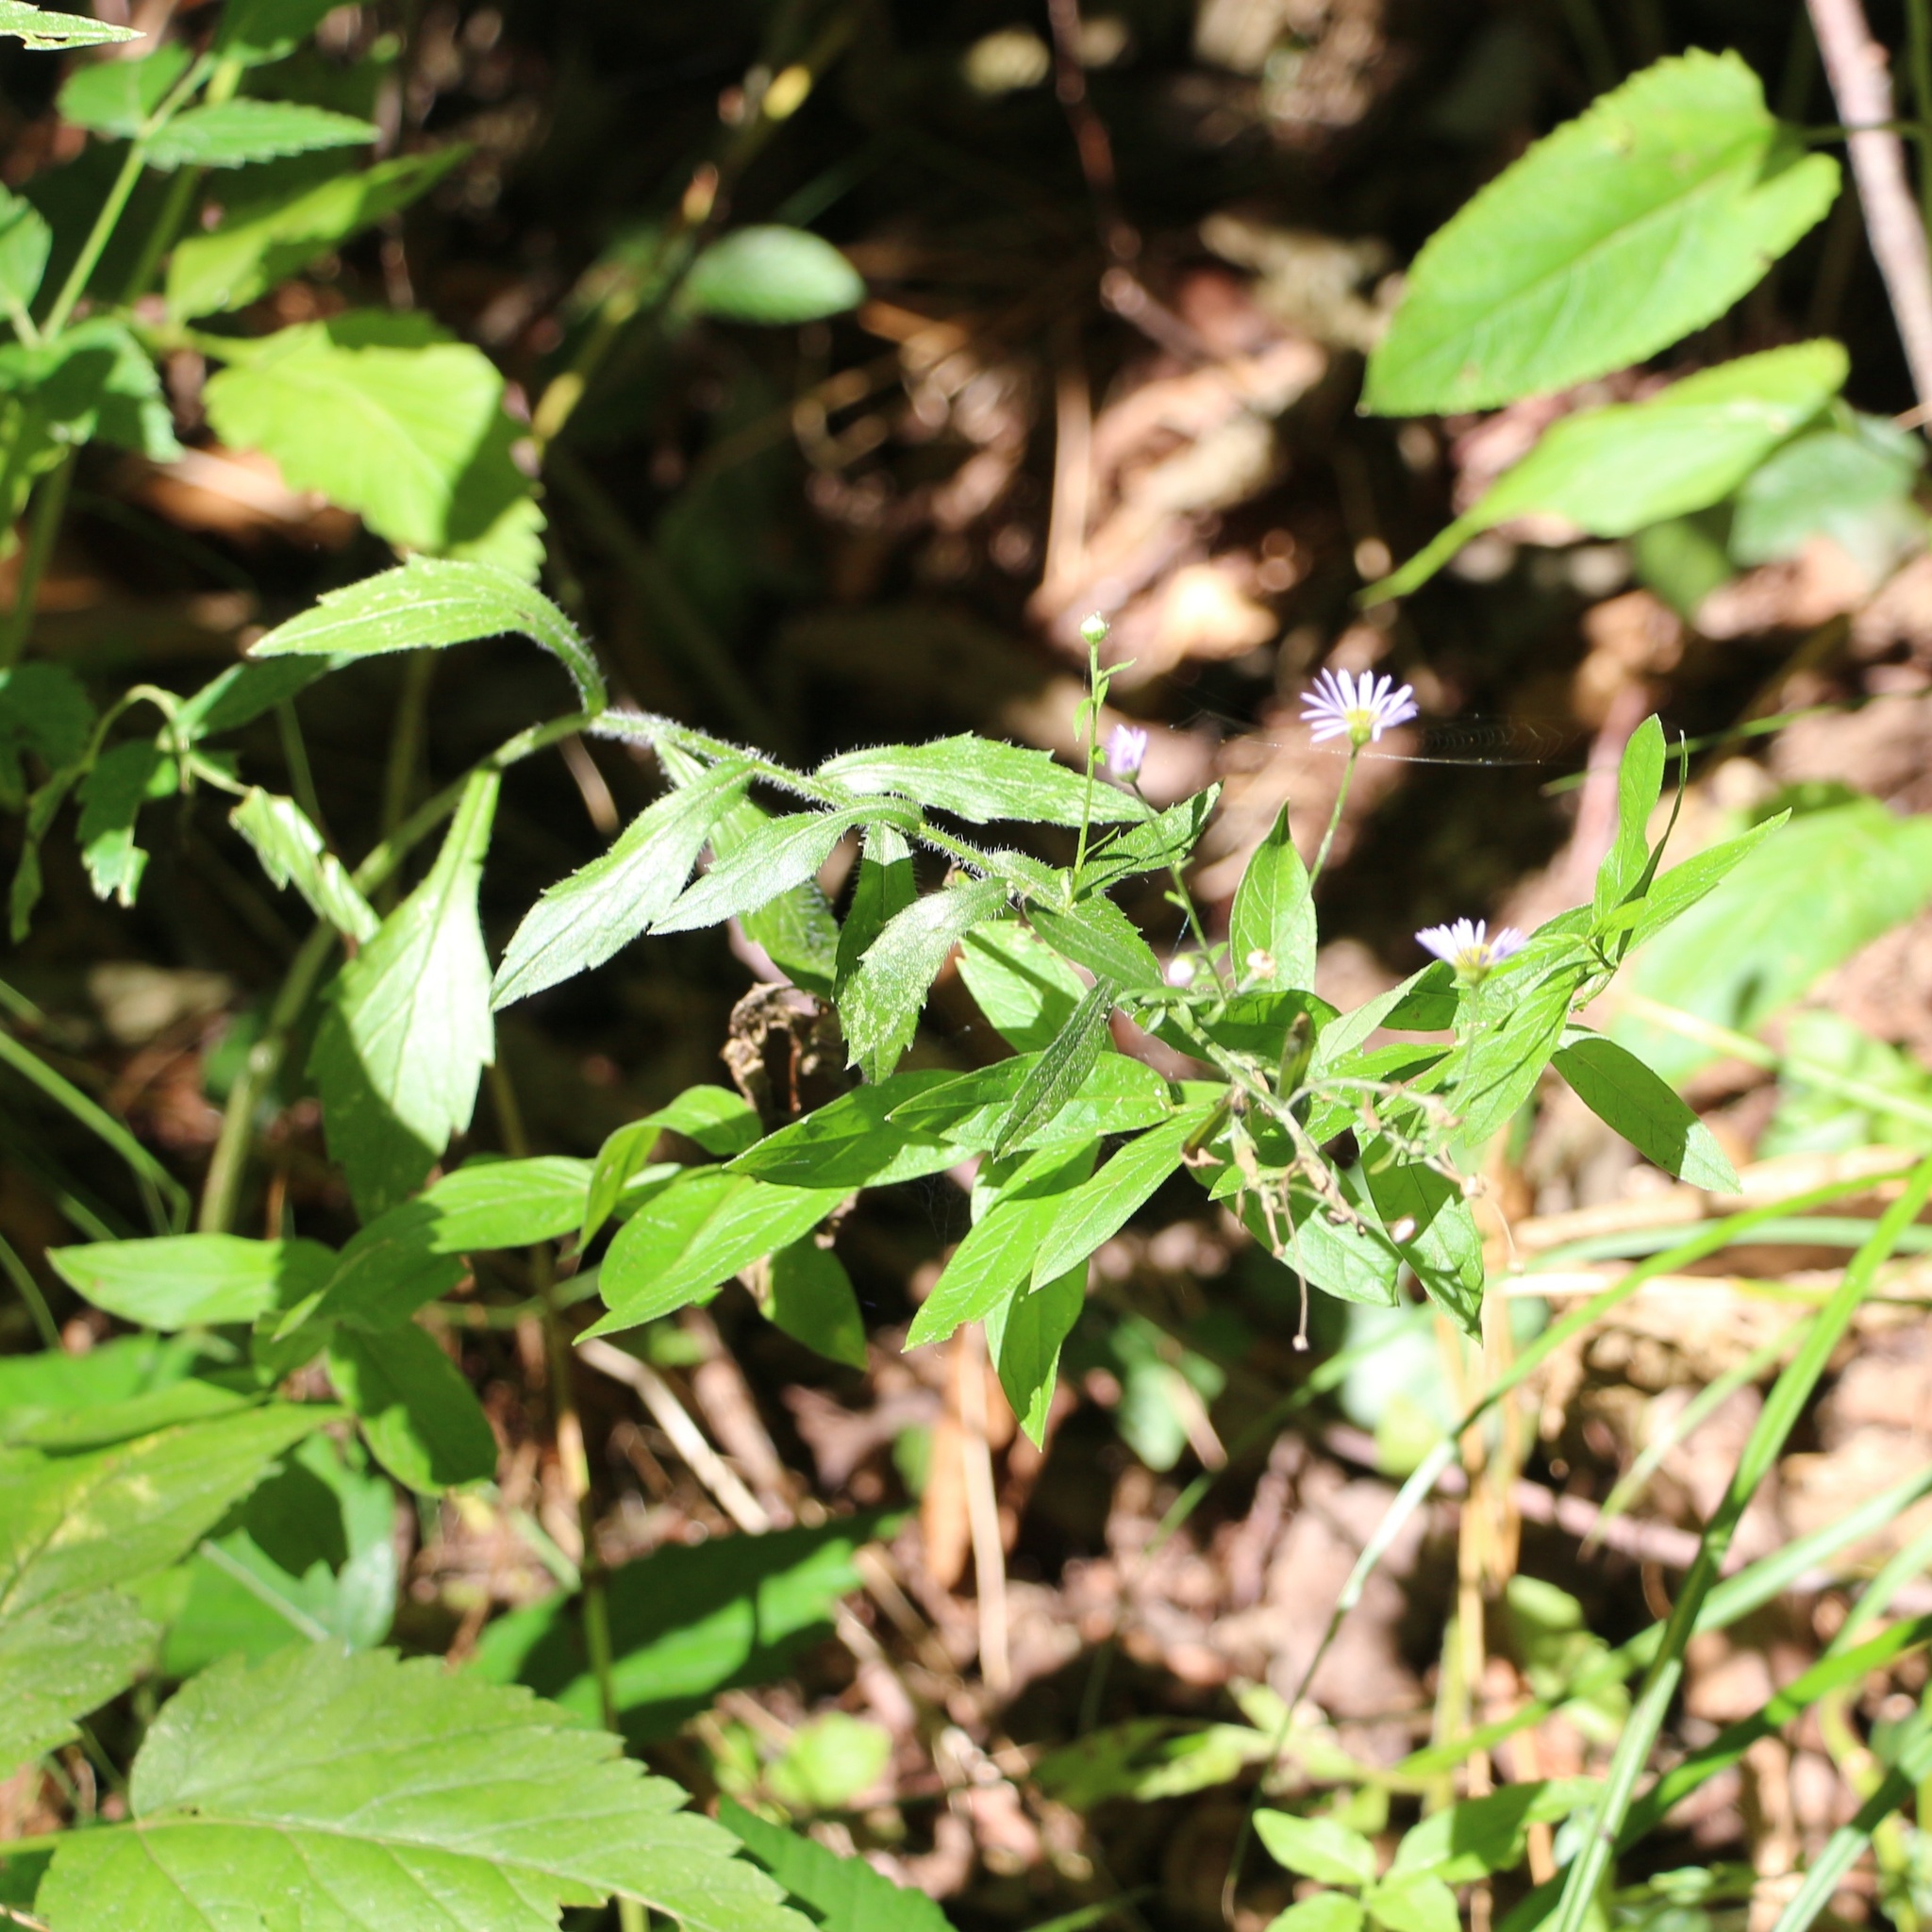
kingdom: Plantae
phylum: Tracheophyta
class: Magnoliopsida
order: Asterales
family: Asteraceae
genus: Erigeron
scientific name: Erigeron annuus
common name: Tall fleabane
